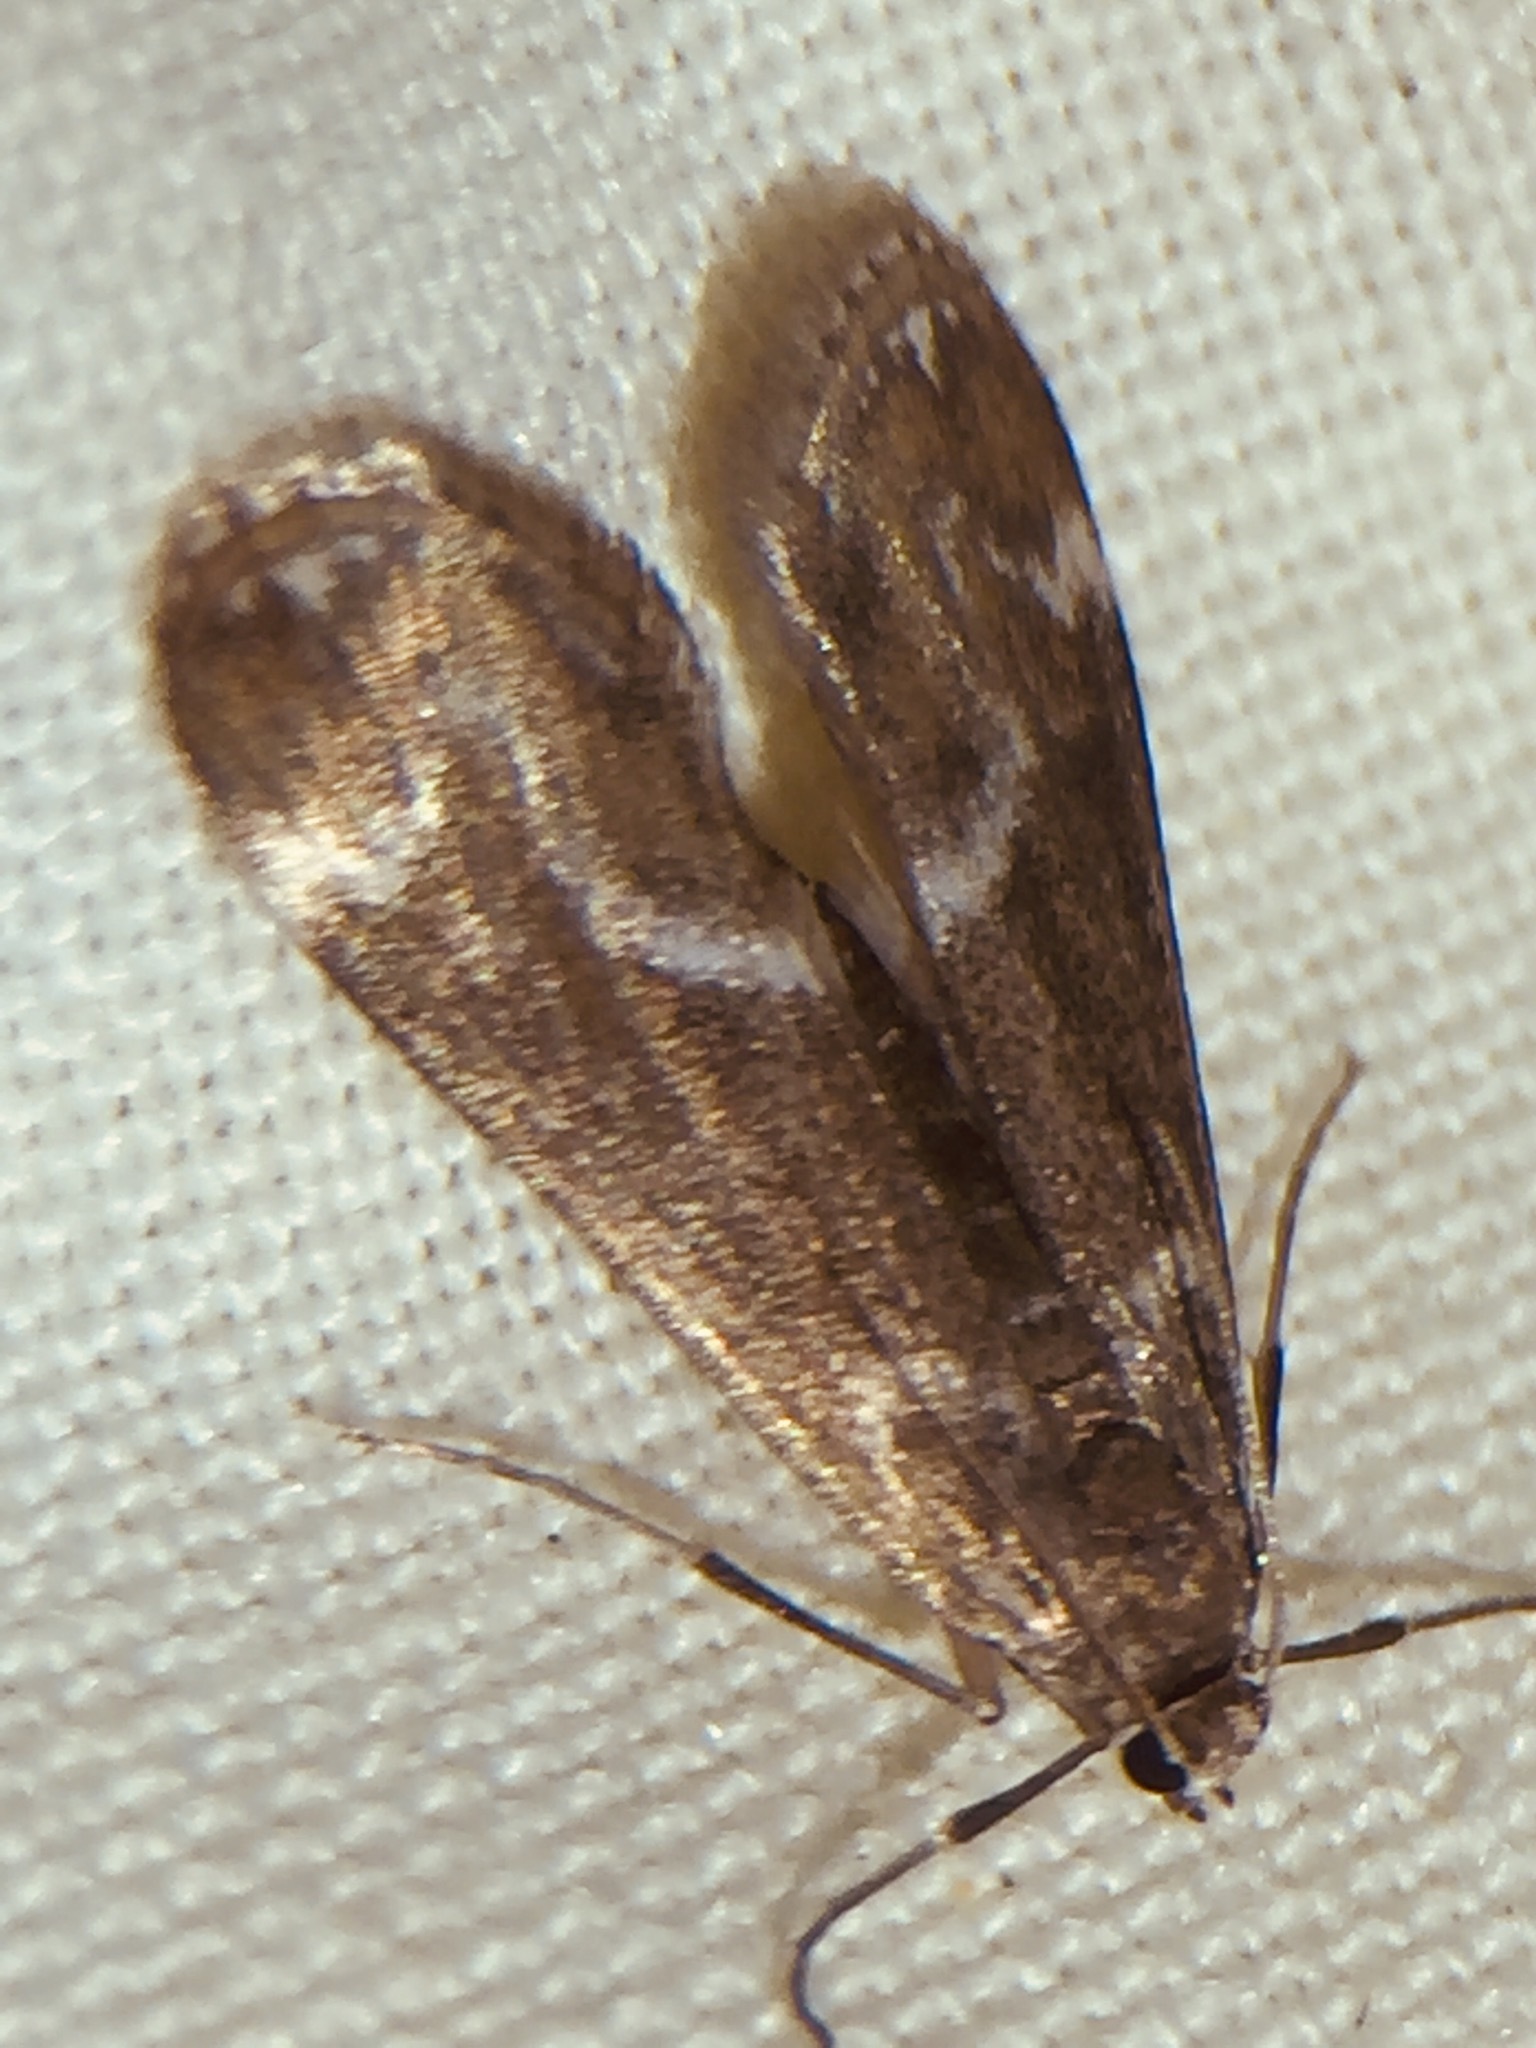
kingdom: Animalia
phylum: Arthropoda
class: Insecta
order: Lepidoptera
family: Crambidae
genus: Hygraula
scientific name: Hygraula nitens
